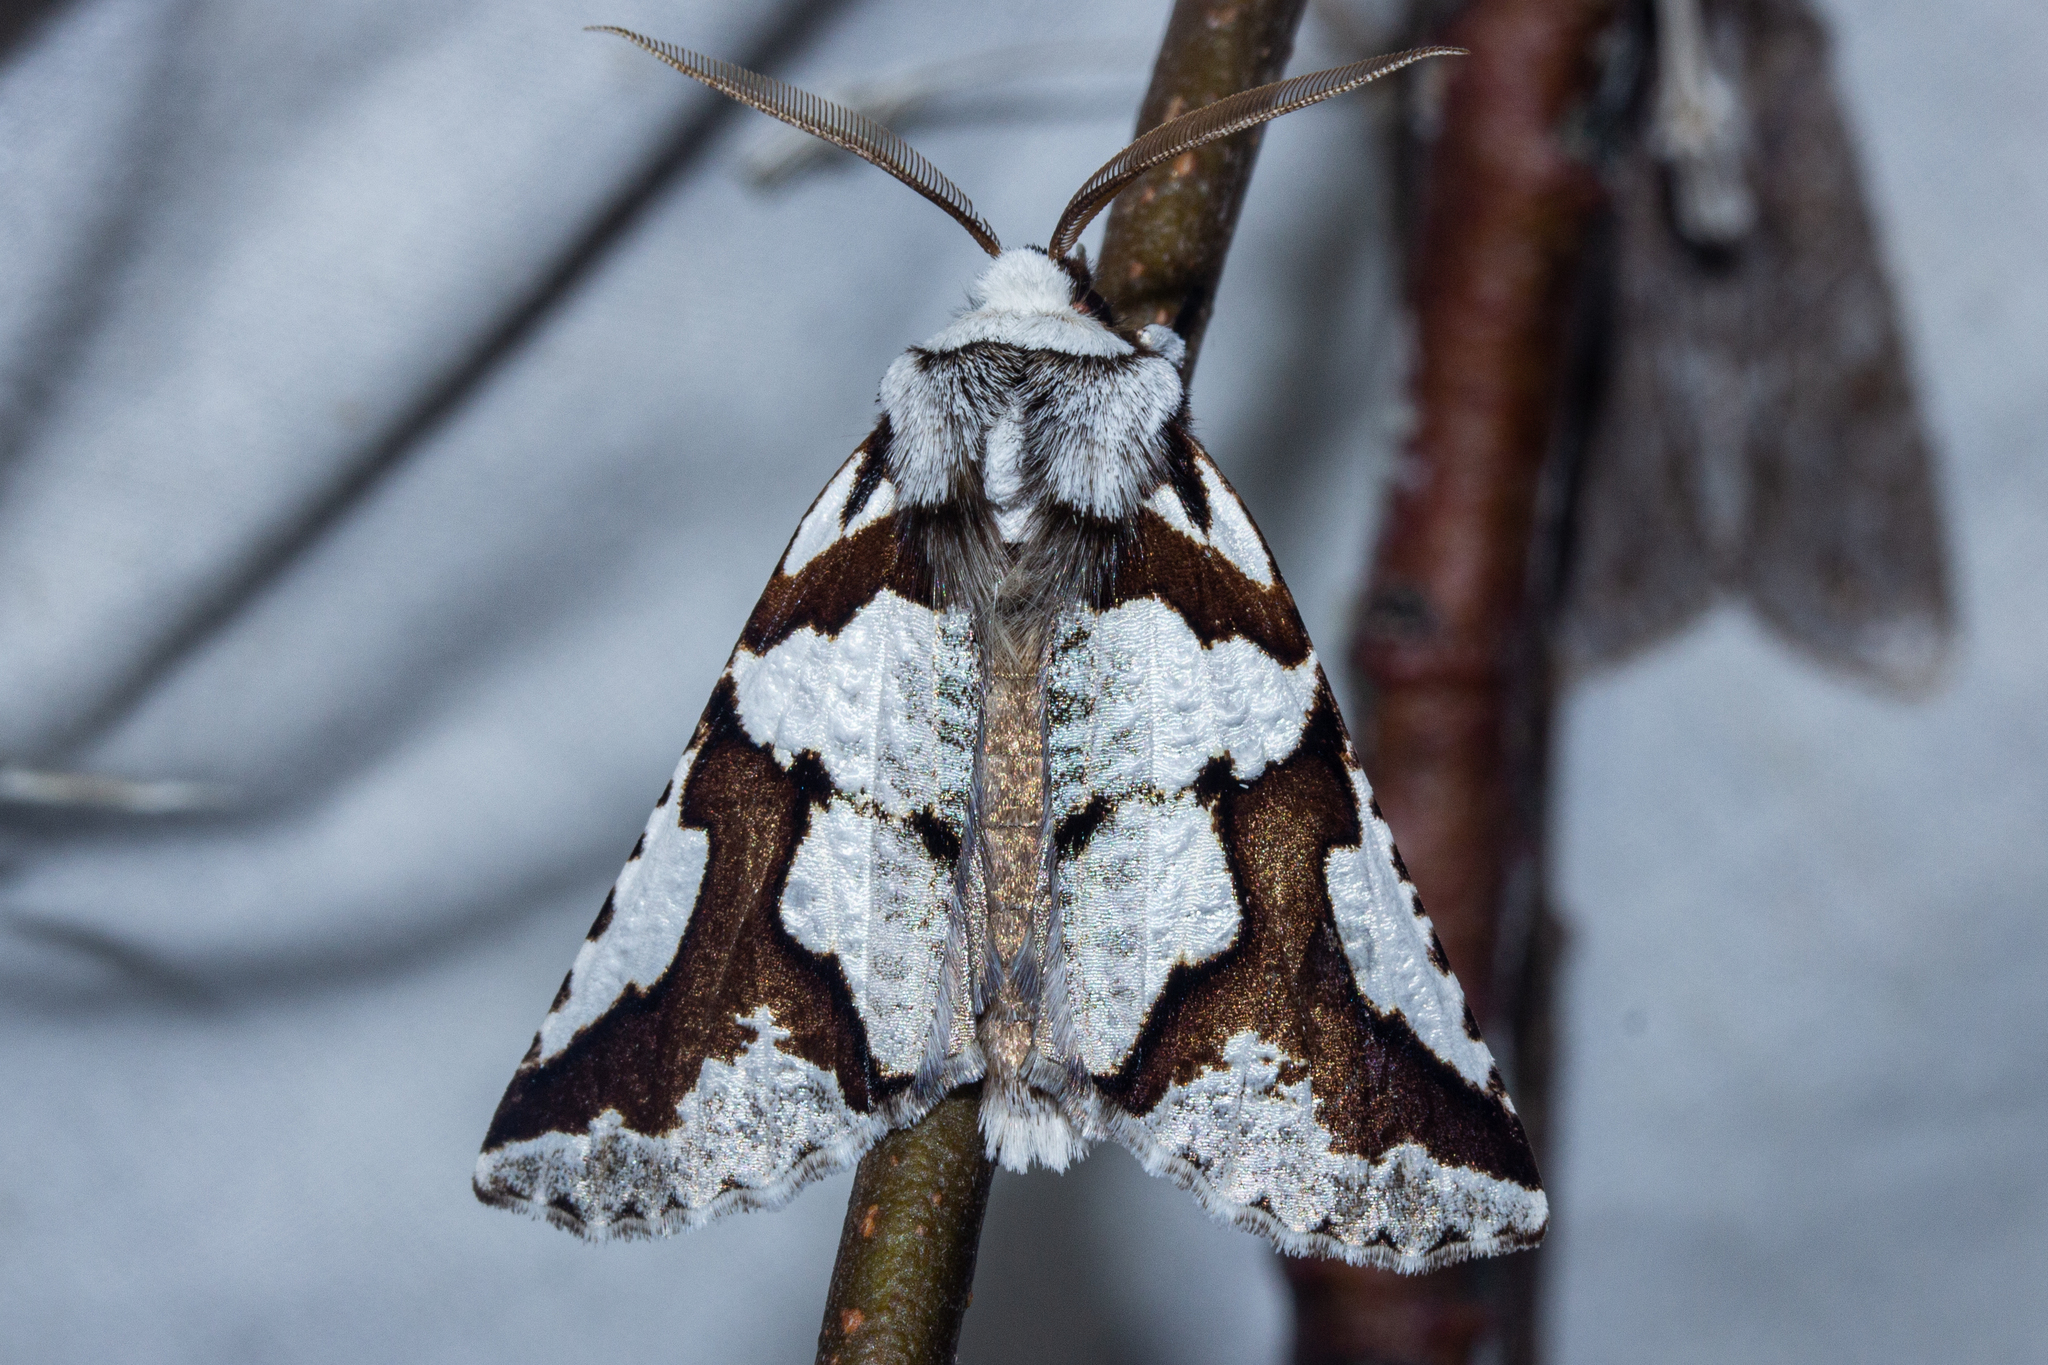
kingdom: Animalia
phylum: Arthropoda
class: Insecta
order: Lepidoptera
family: Geometridae
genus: Declana
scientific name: Declana
